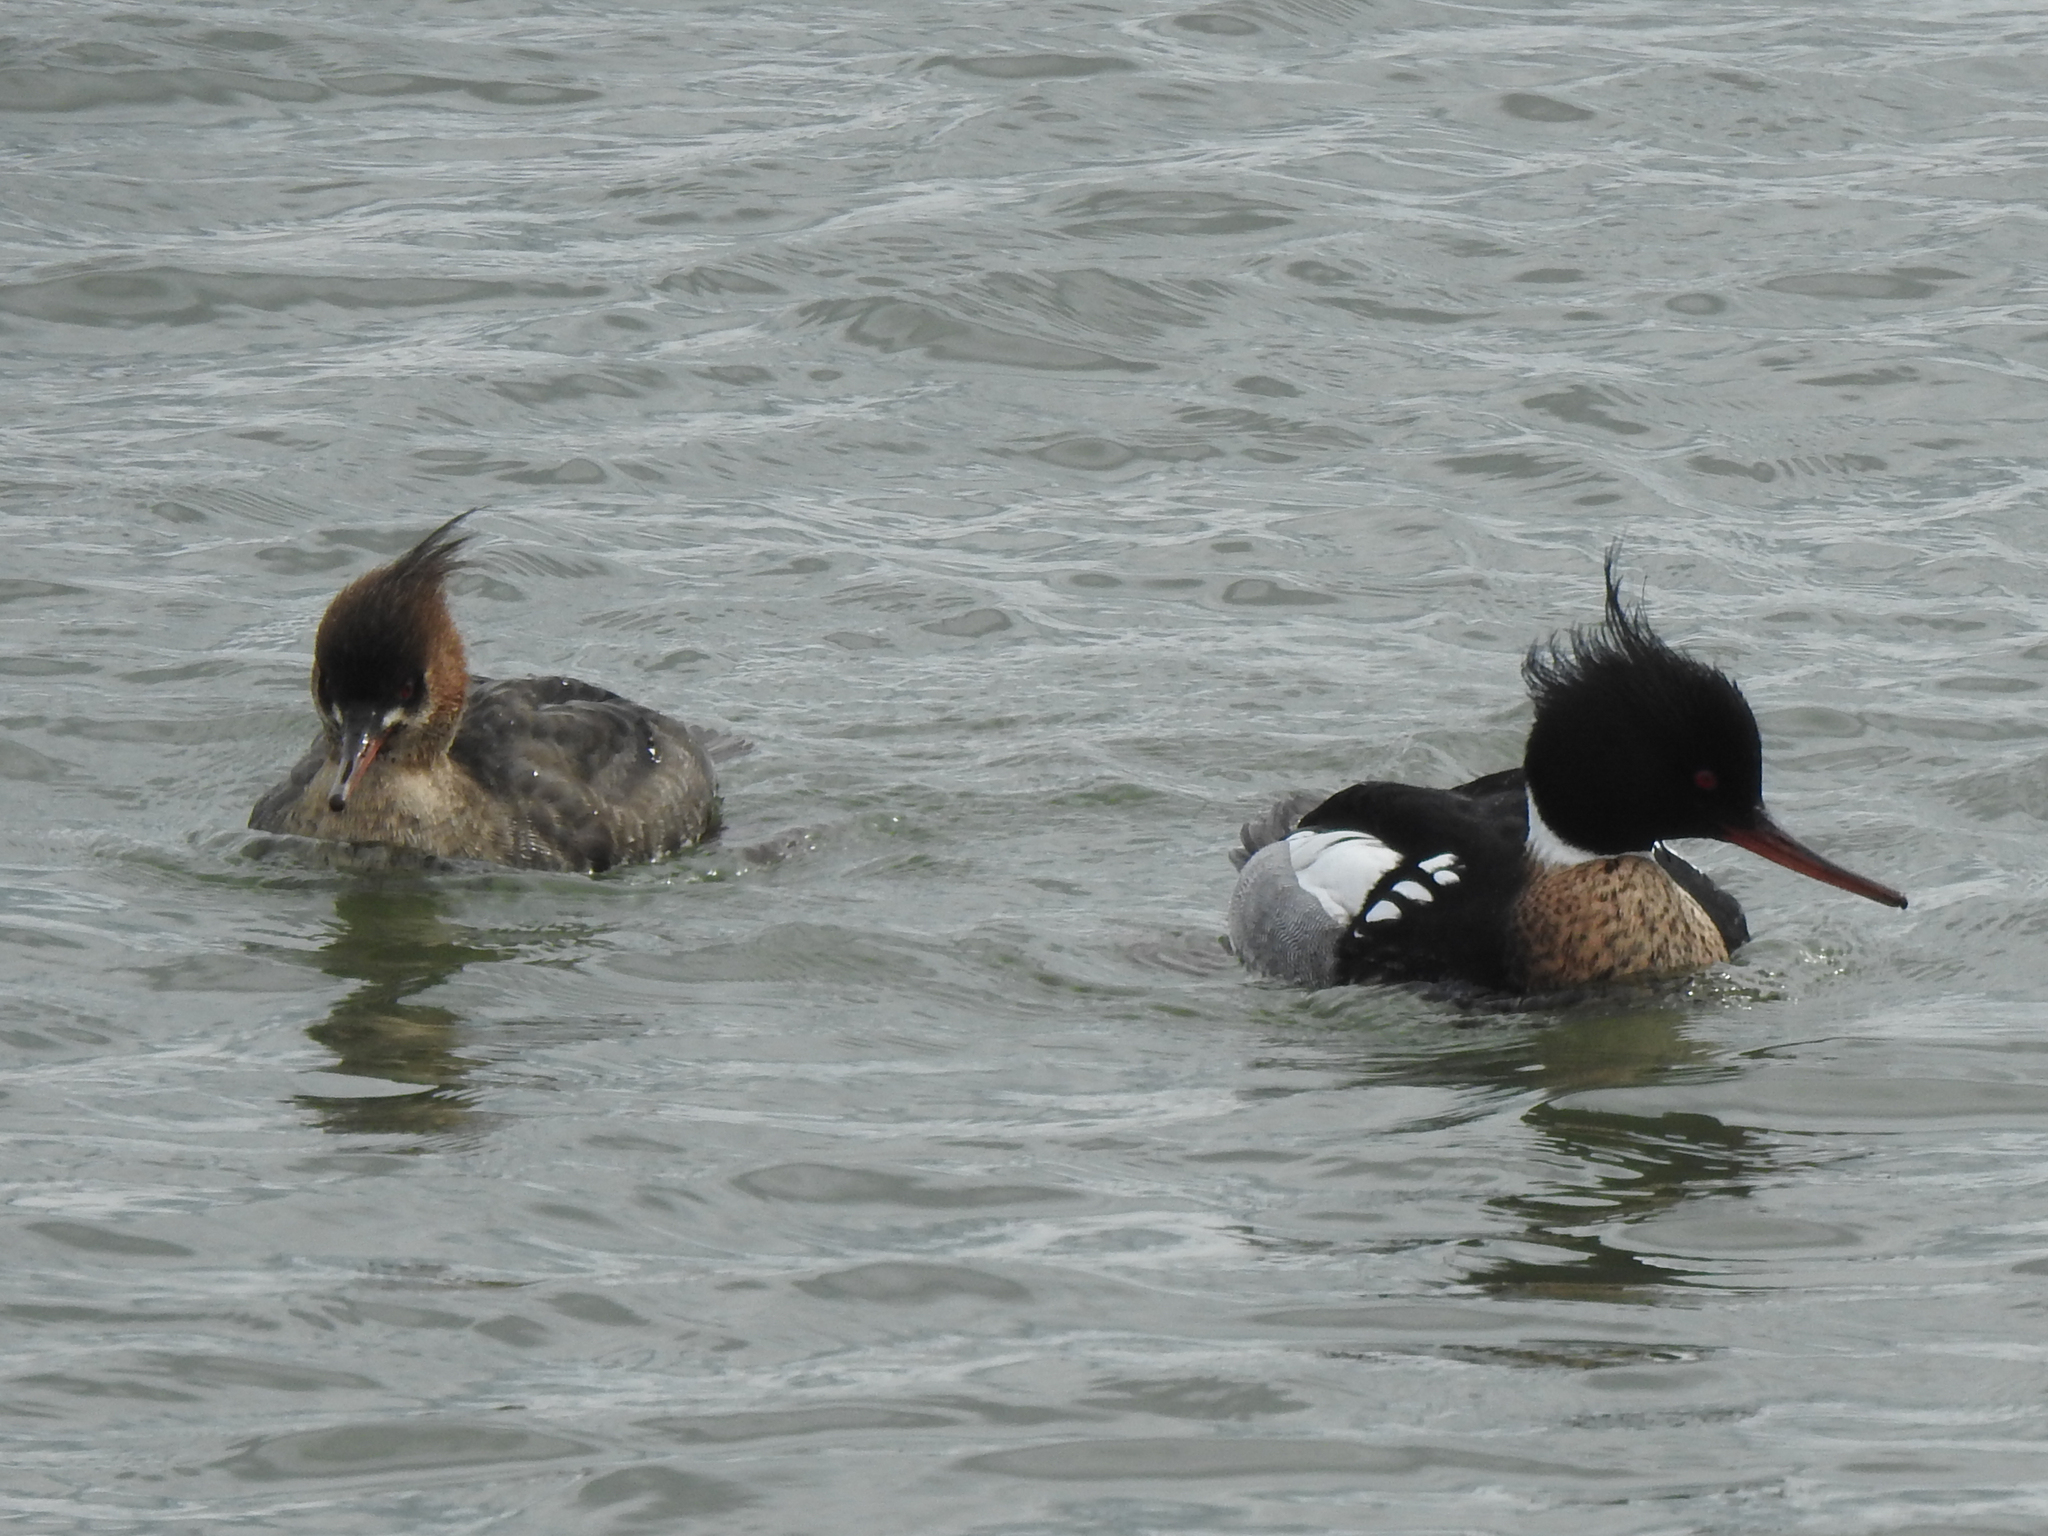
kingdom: Animalia
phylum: Chordata
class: Aves
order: Anseriformes
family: Anatidae
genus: Mergus
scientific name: Mergus serrator
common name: Red-breasted merganser
